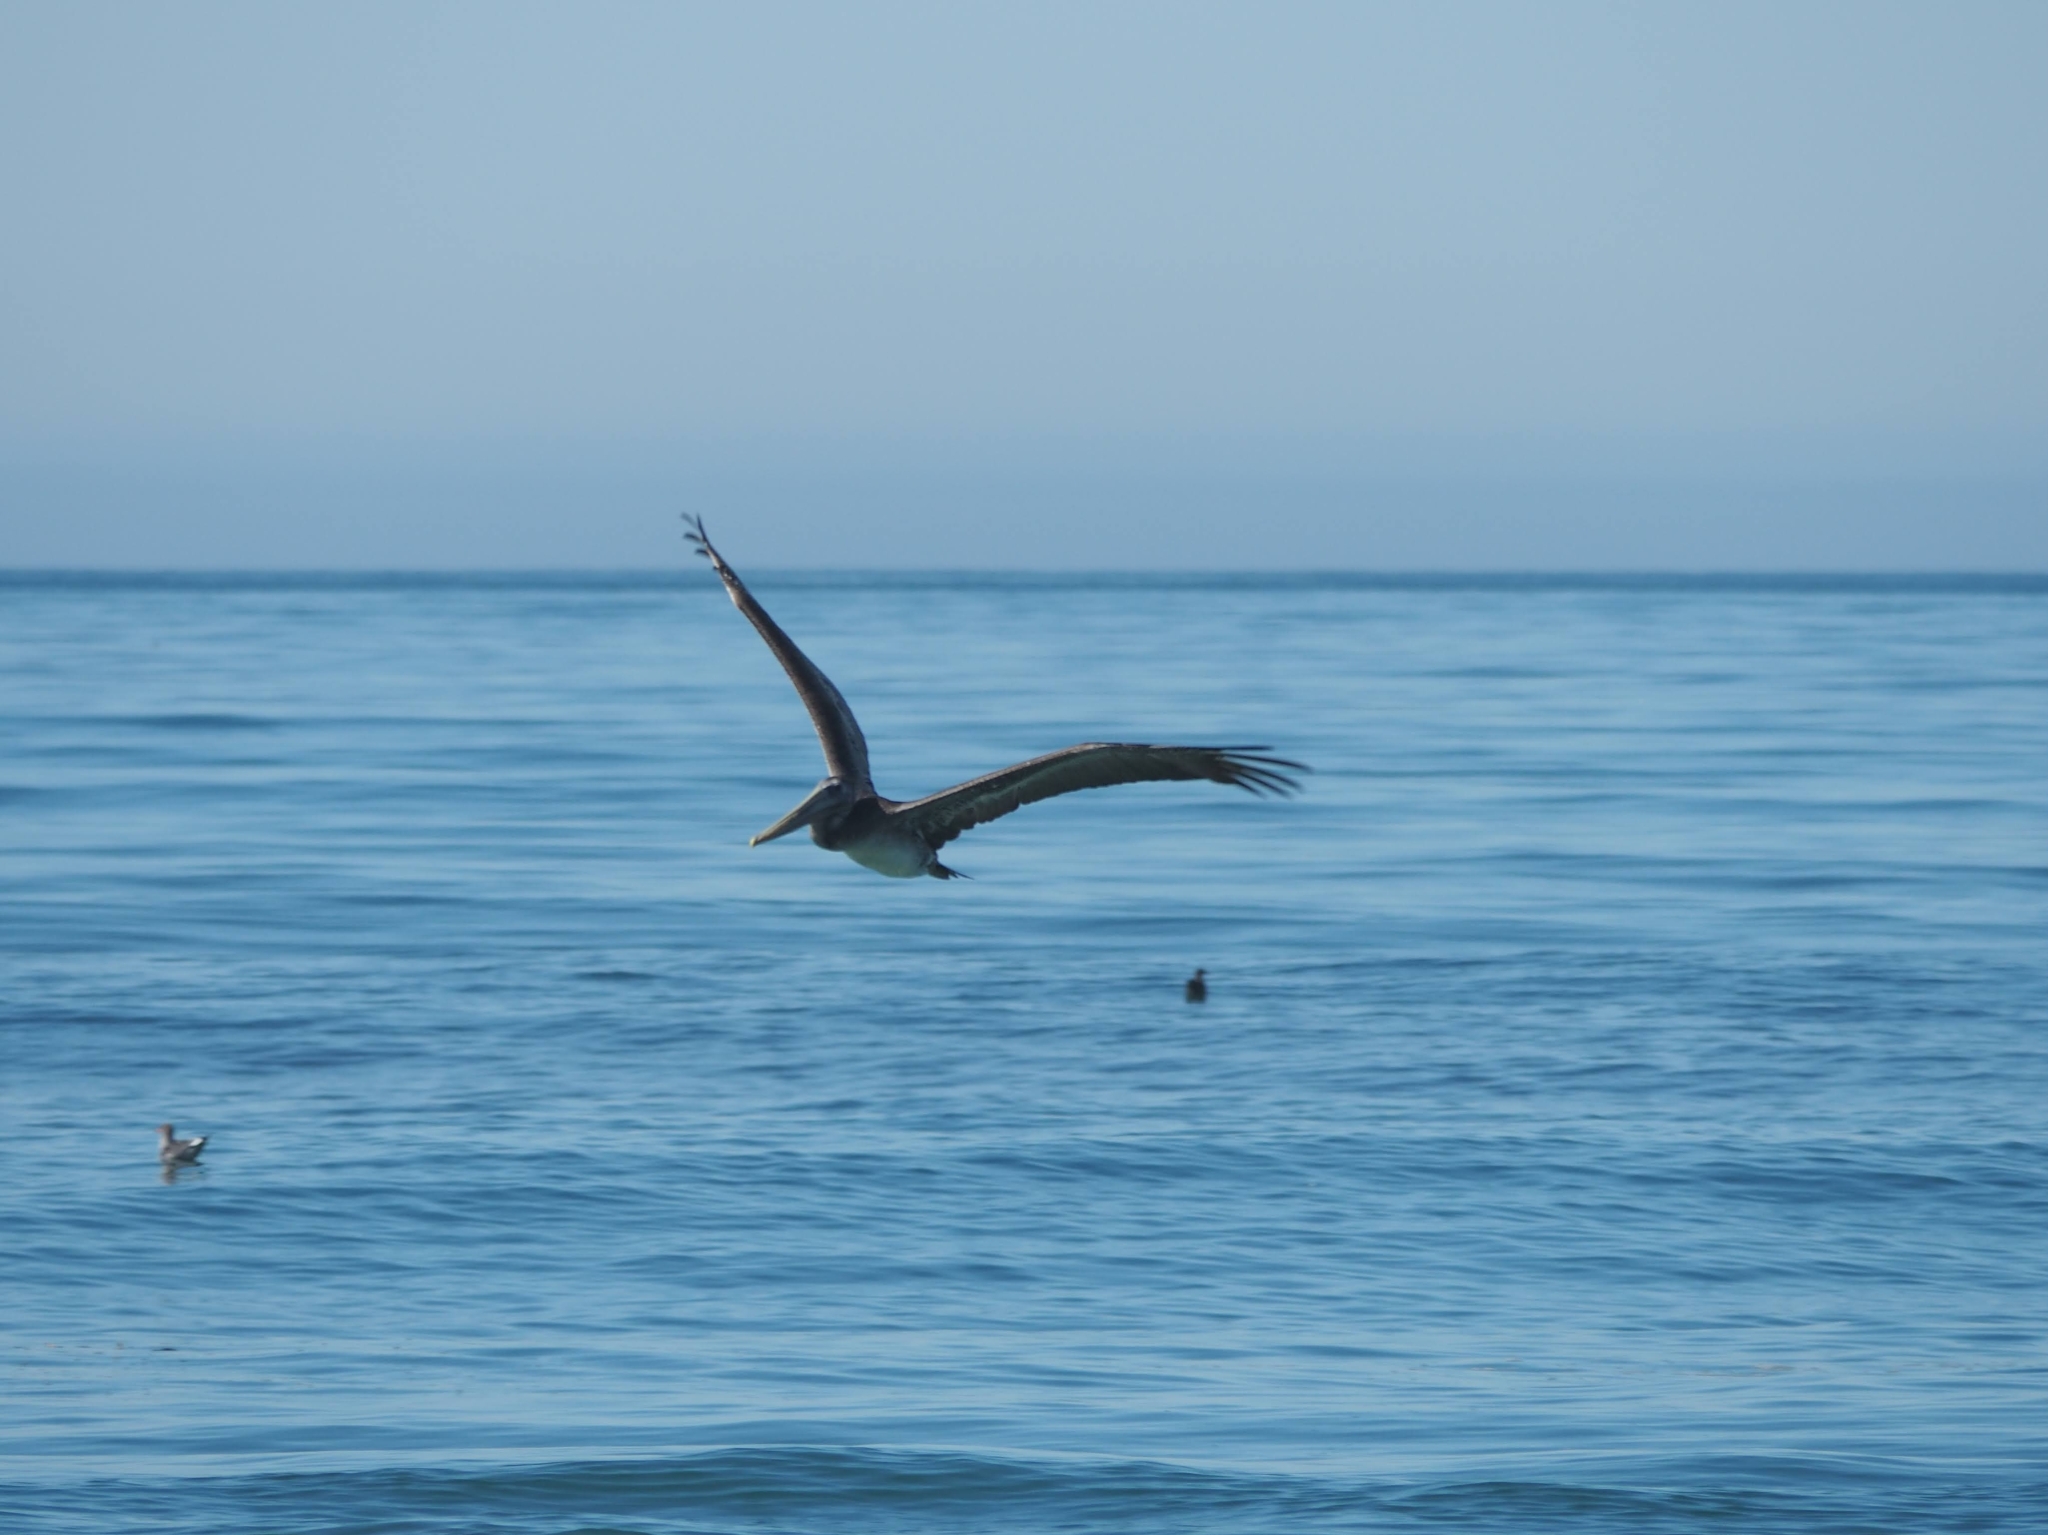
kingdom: Animalia
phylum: Chordata
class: Aves
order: Pelecaniformes
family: Pelecanidae
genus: Pelecanus
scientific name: Pelecanus occidentalis
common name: Brown pelican
